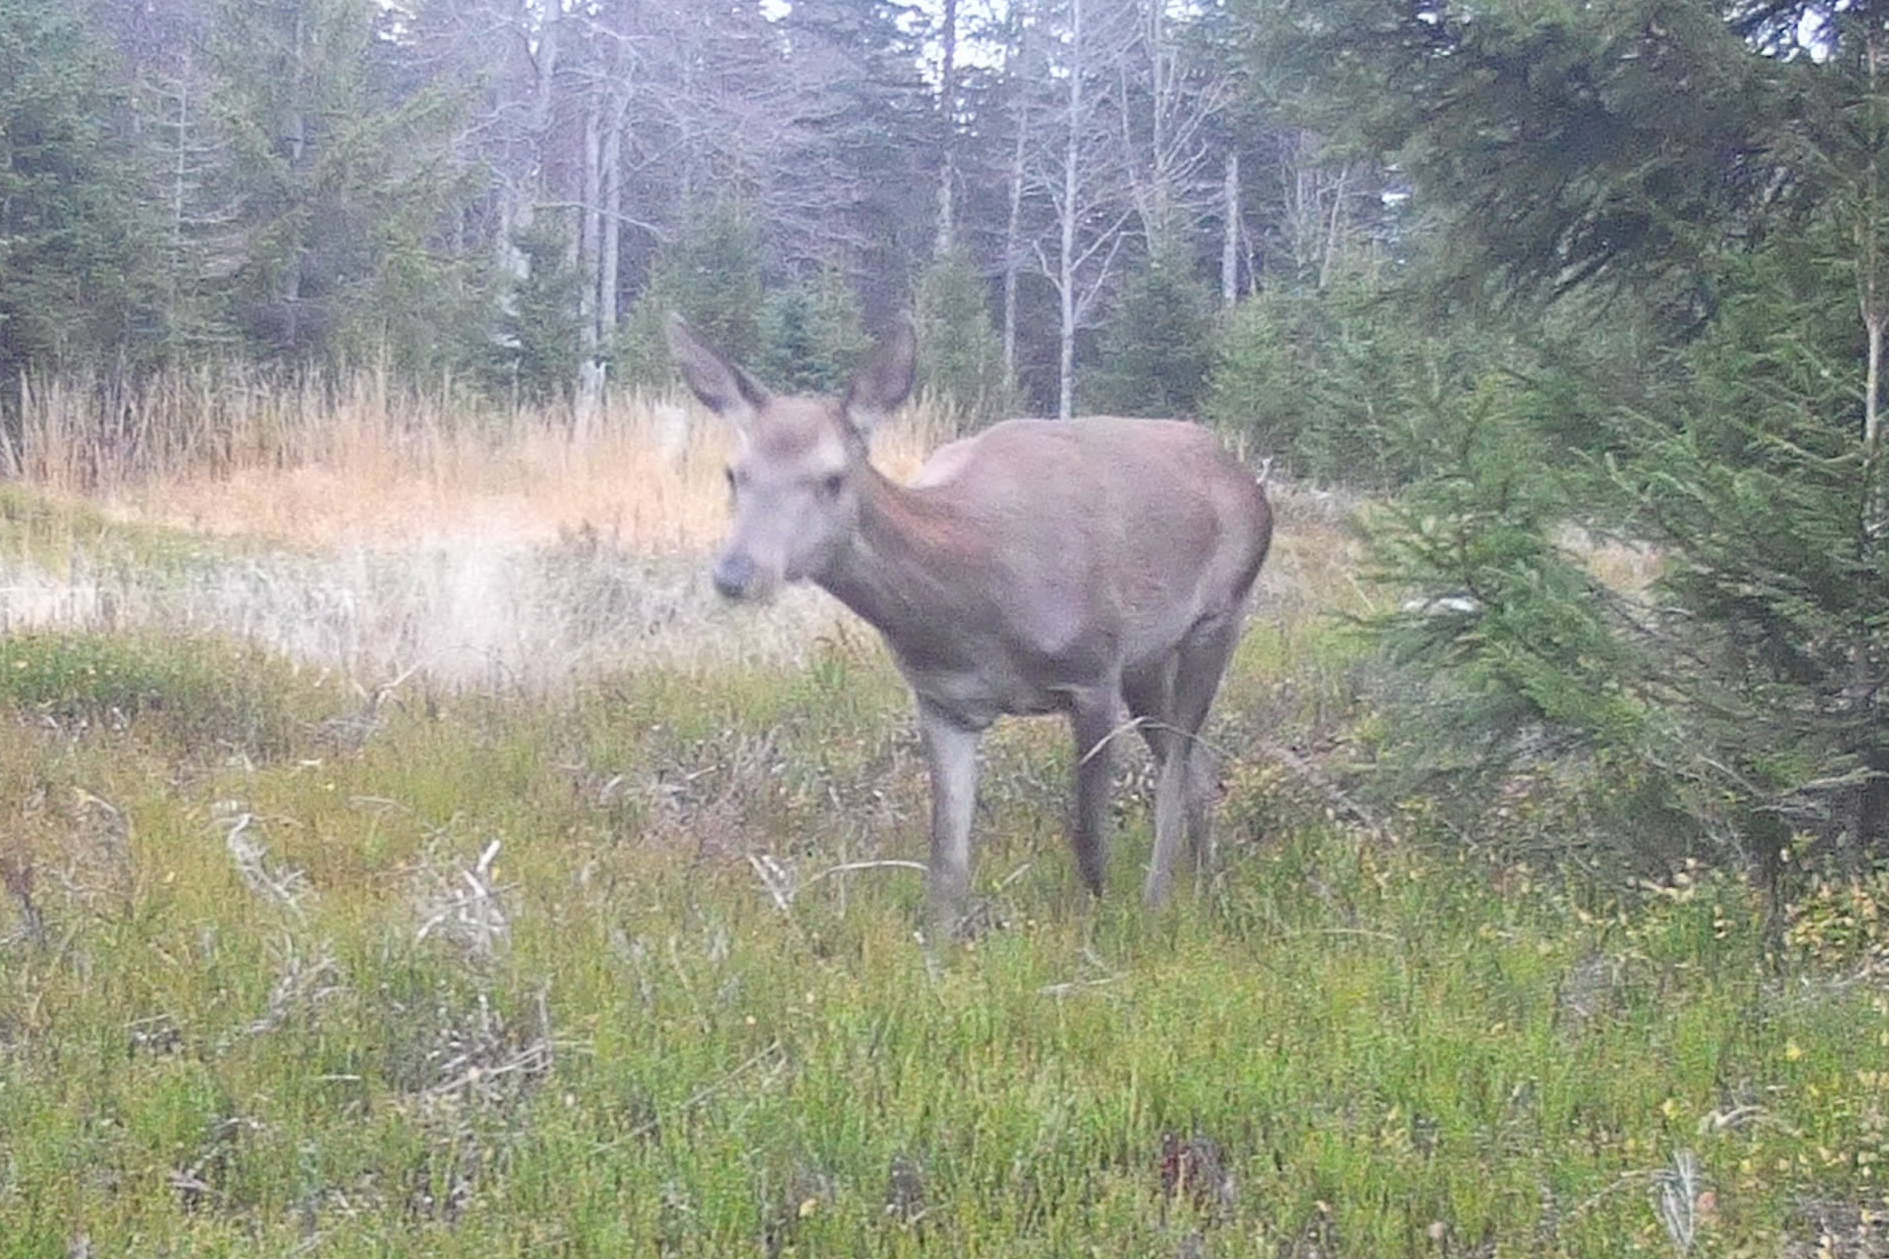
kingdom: Animalia
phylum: Chordata
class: Mammalia
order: Artiodactyla
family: Cervidae
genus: Cervus
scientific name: Cervus elaphus
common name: Red deer
